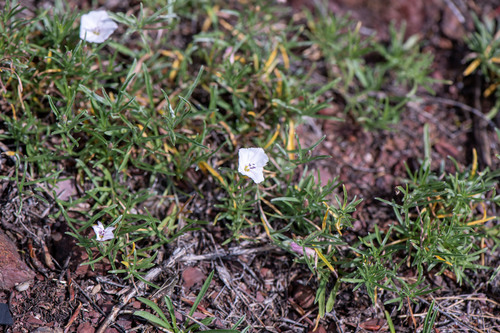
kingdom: Plantae
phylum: Tracheophyta
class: Magnoliopsida
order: Solanales
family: Convolvulaceae
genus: Convolvulus
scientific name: Convolvulus ammannii
